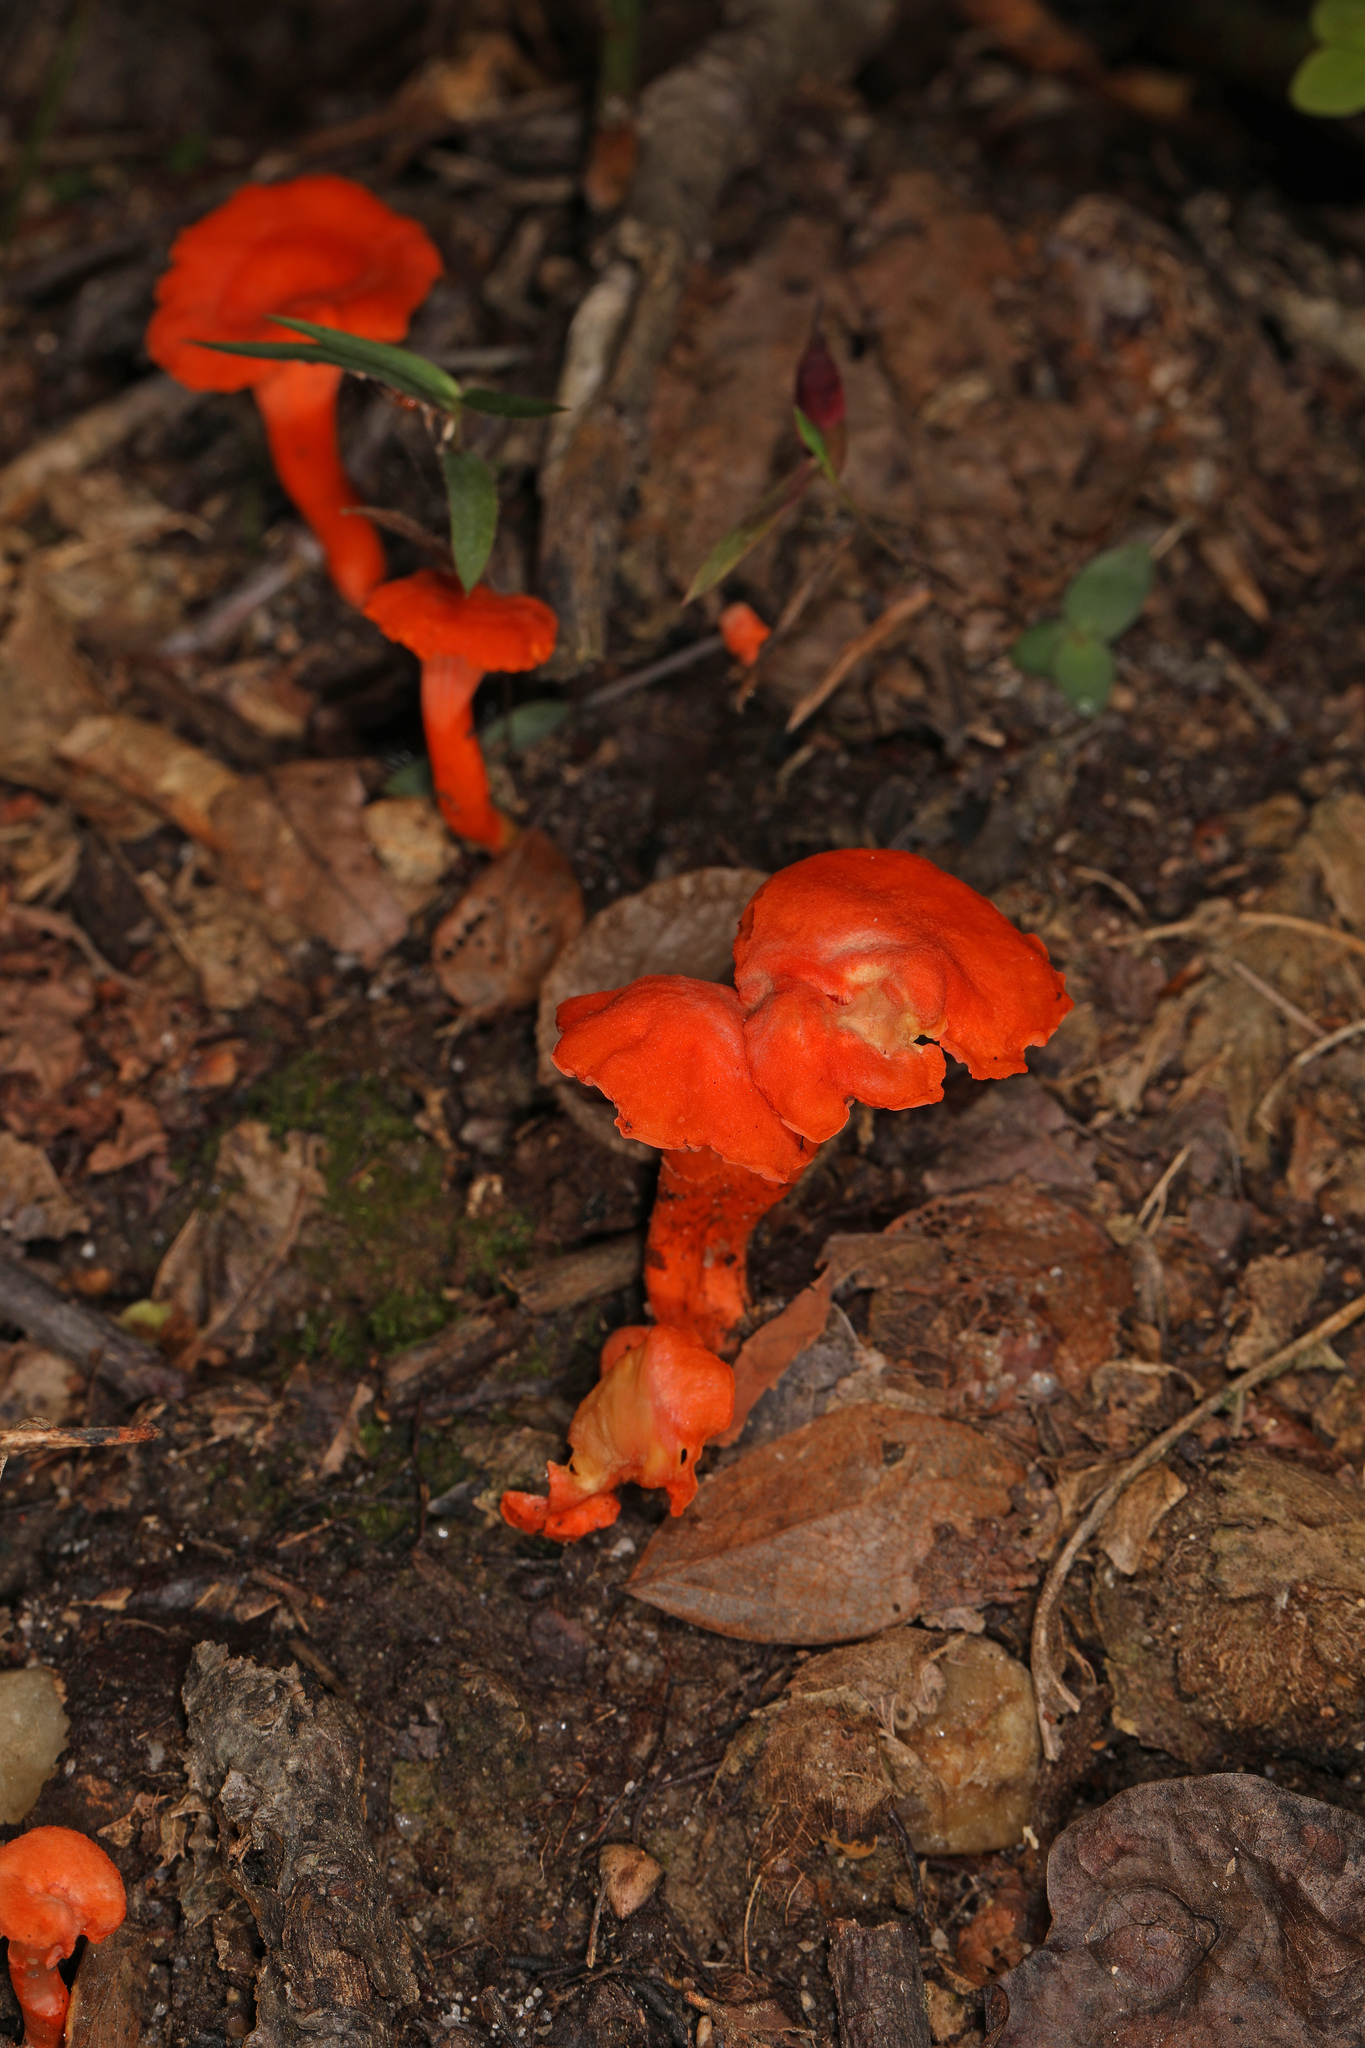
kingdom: Fungi
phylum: Basidiomycota
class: Agaricomycetes
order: Cantharellales
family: Hydnaceae
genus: Cantharellus
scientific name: Cantharellus cinnabarinus
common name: Cinnabar chanterelle
